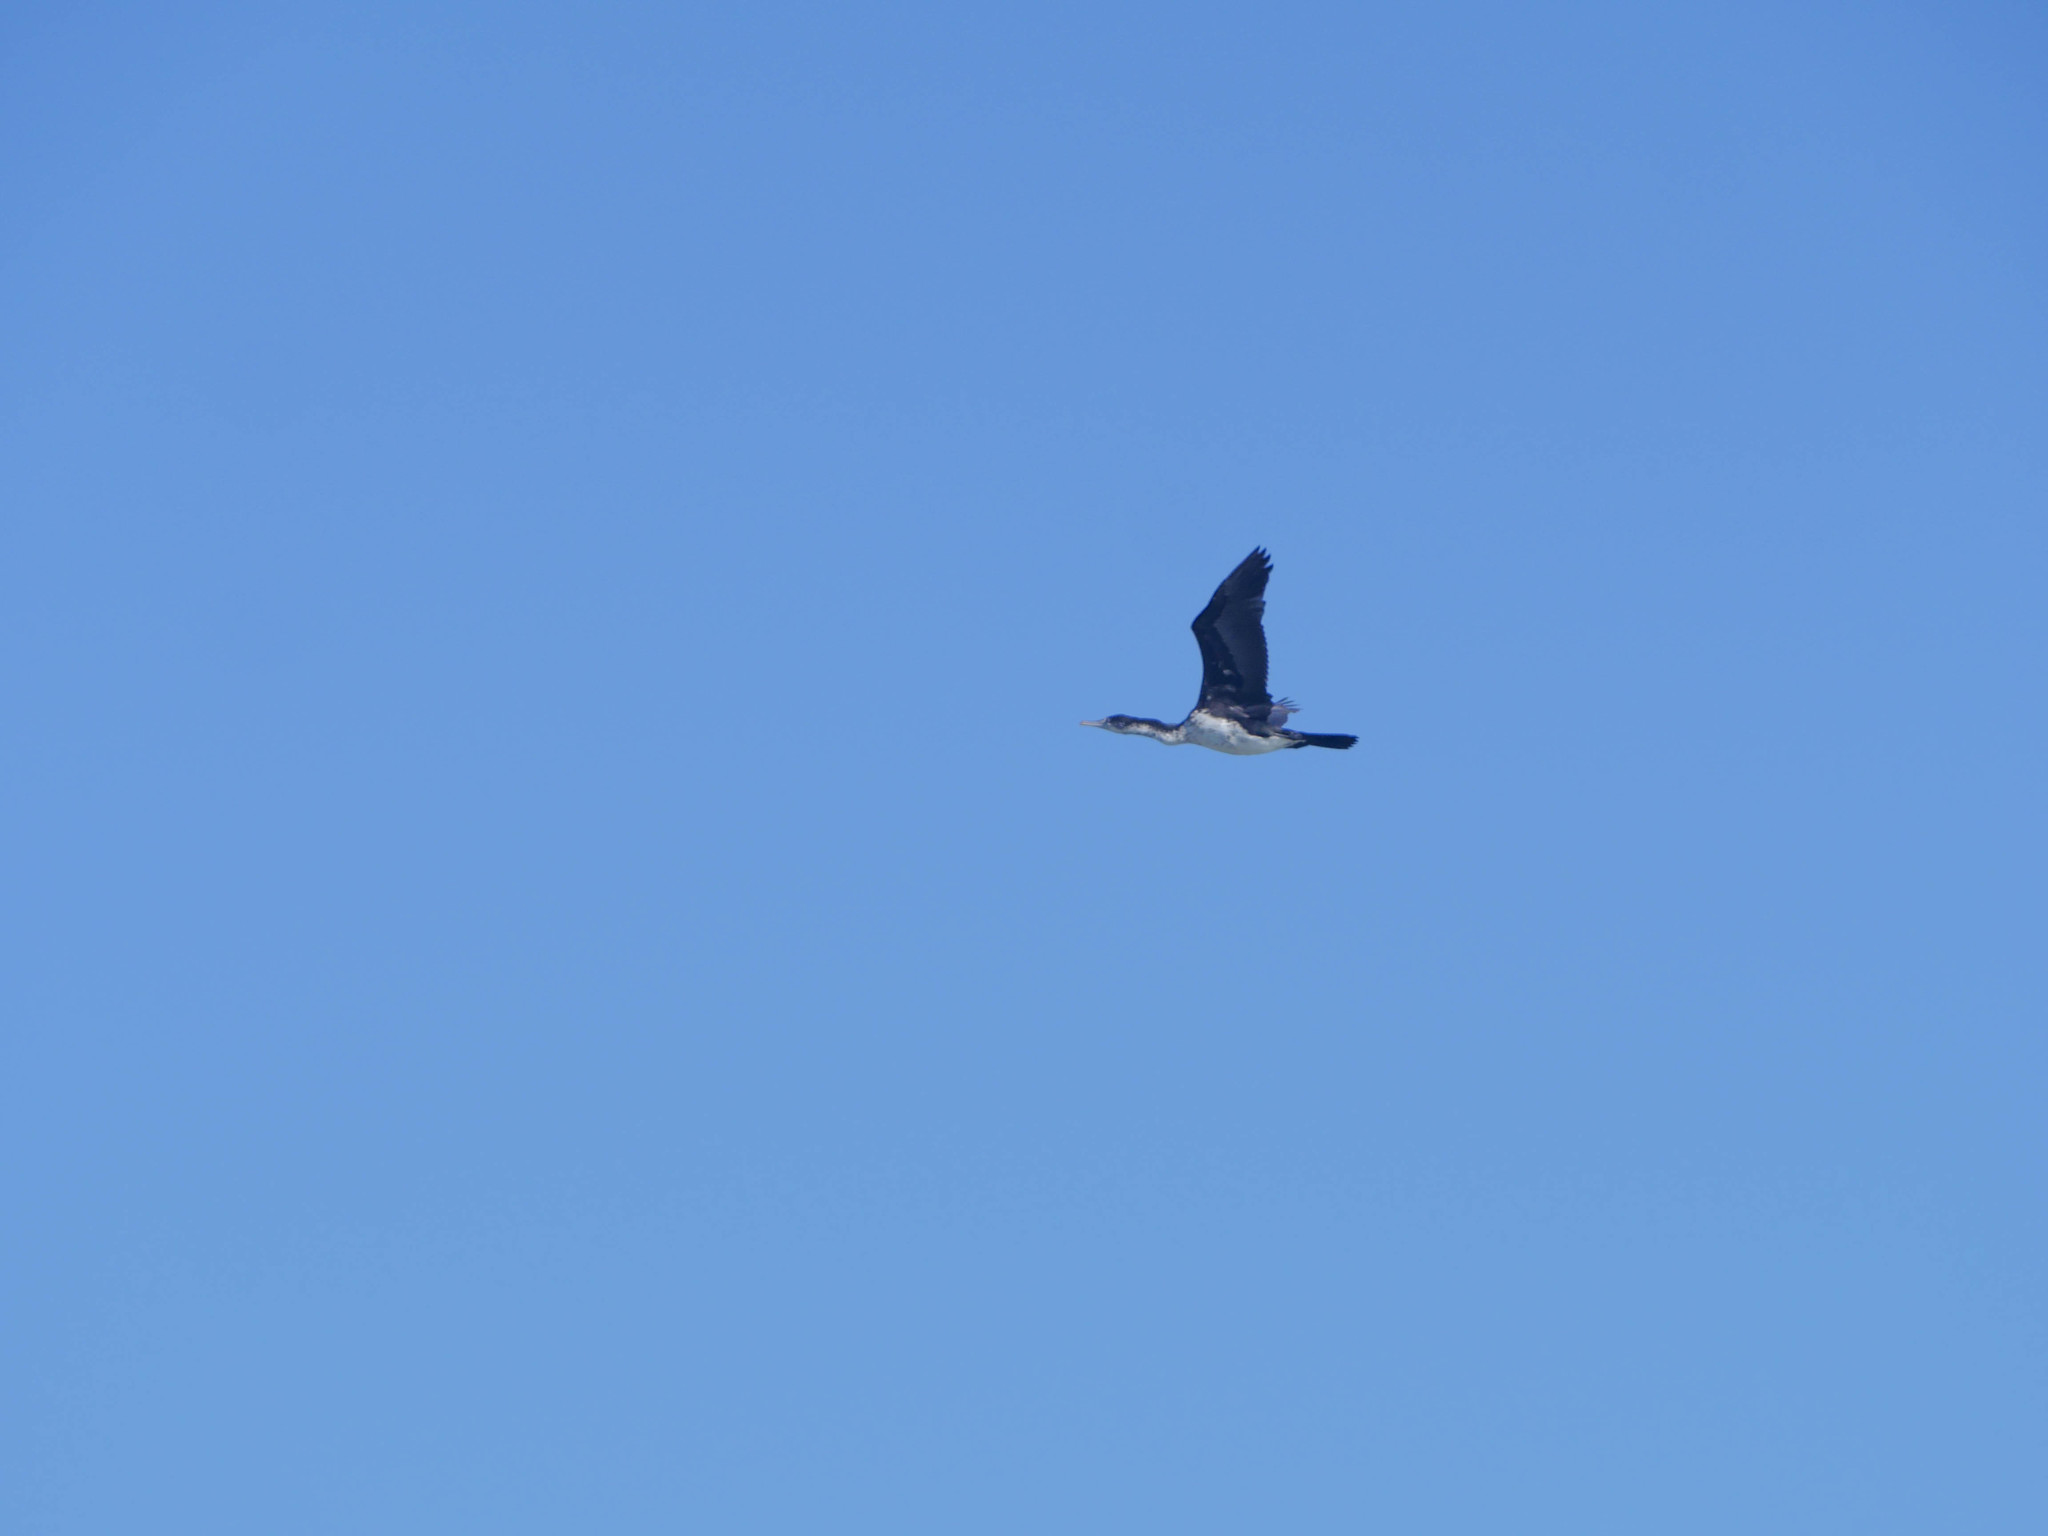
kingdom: Animalia
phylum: Chordata
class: Aves
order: Suliformes
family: Phalacrocoracidae
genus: Phalacrocorax
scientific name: Phalacrocorax varius
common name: Pied cormorant
